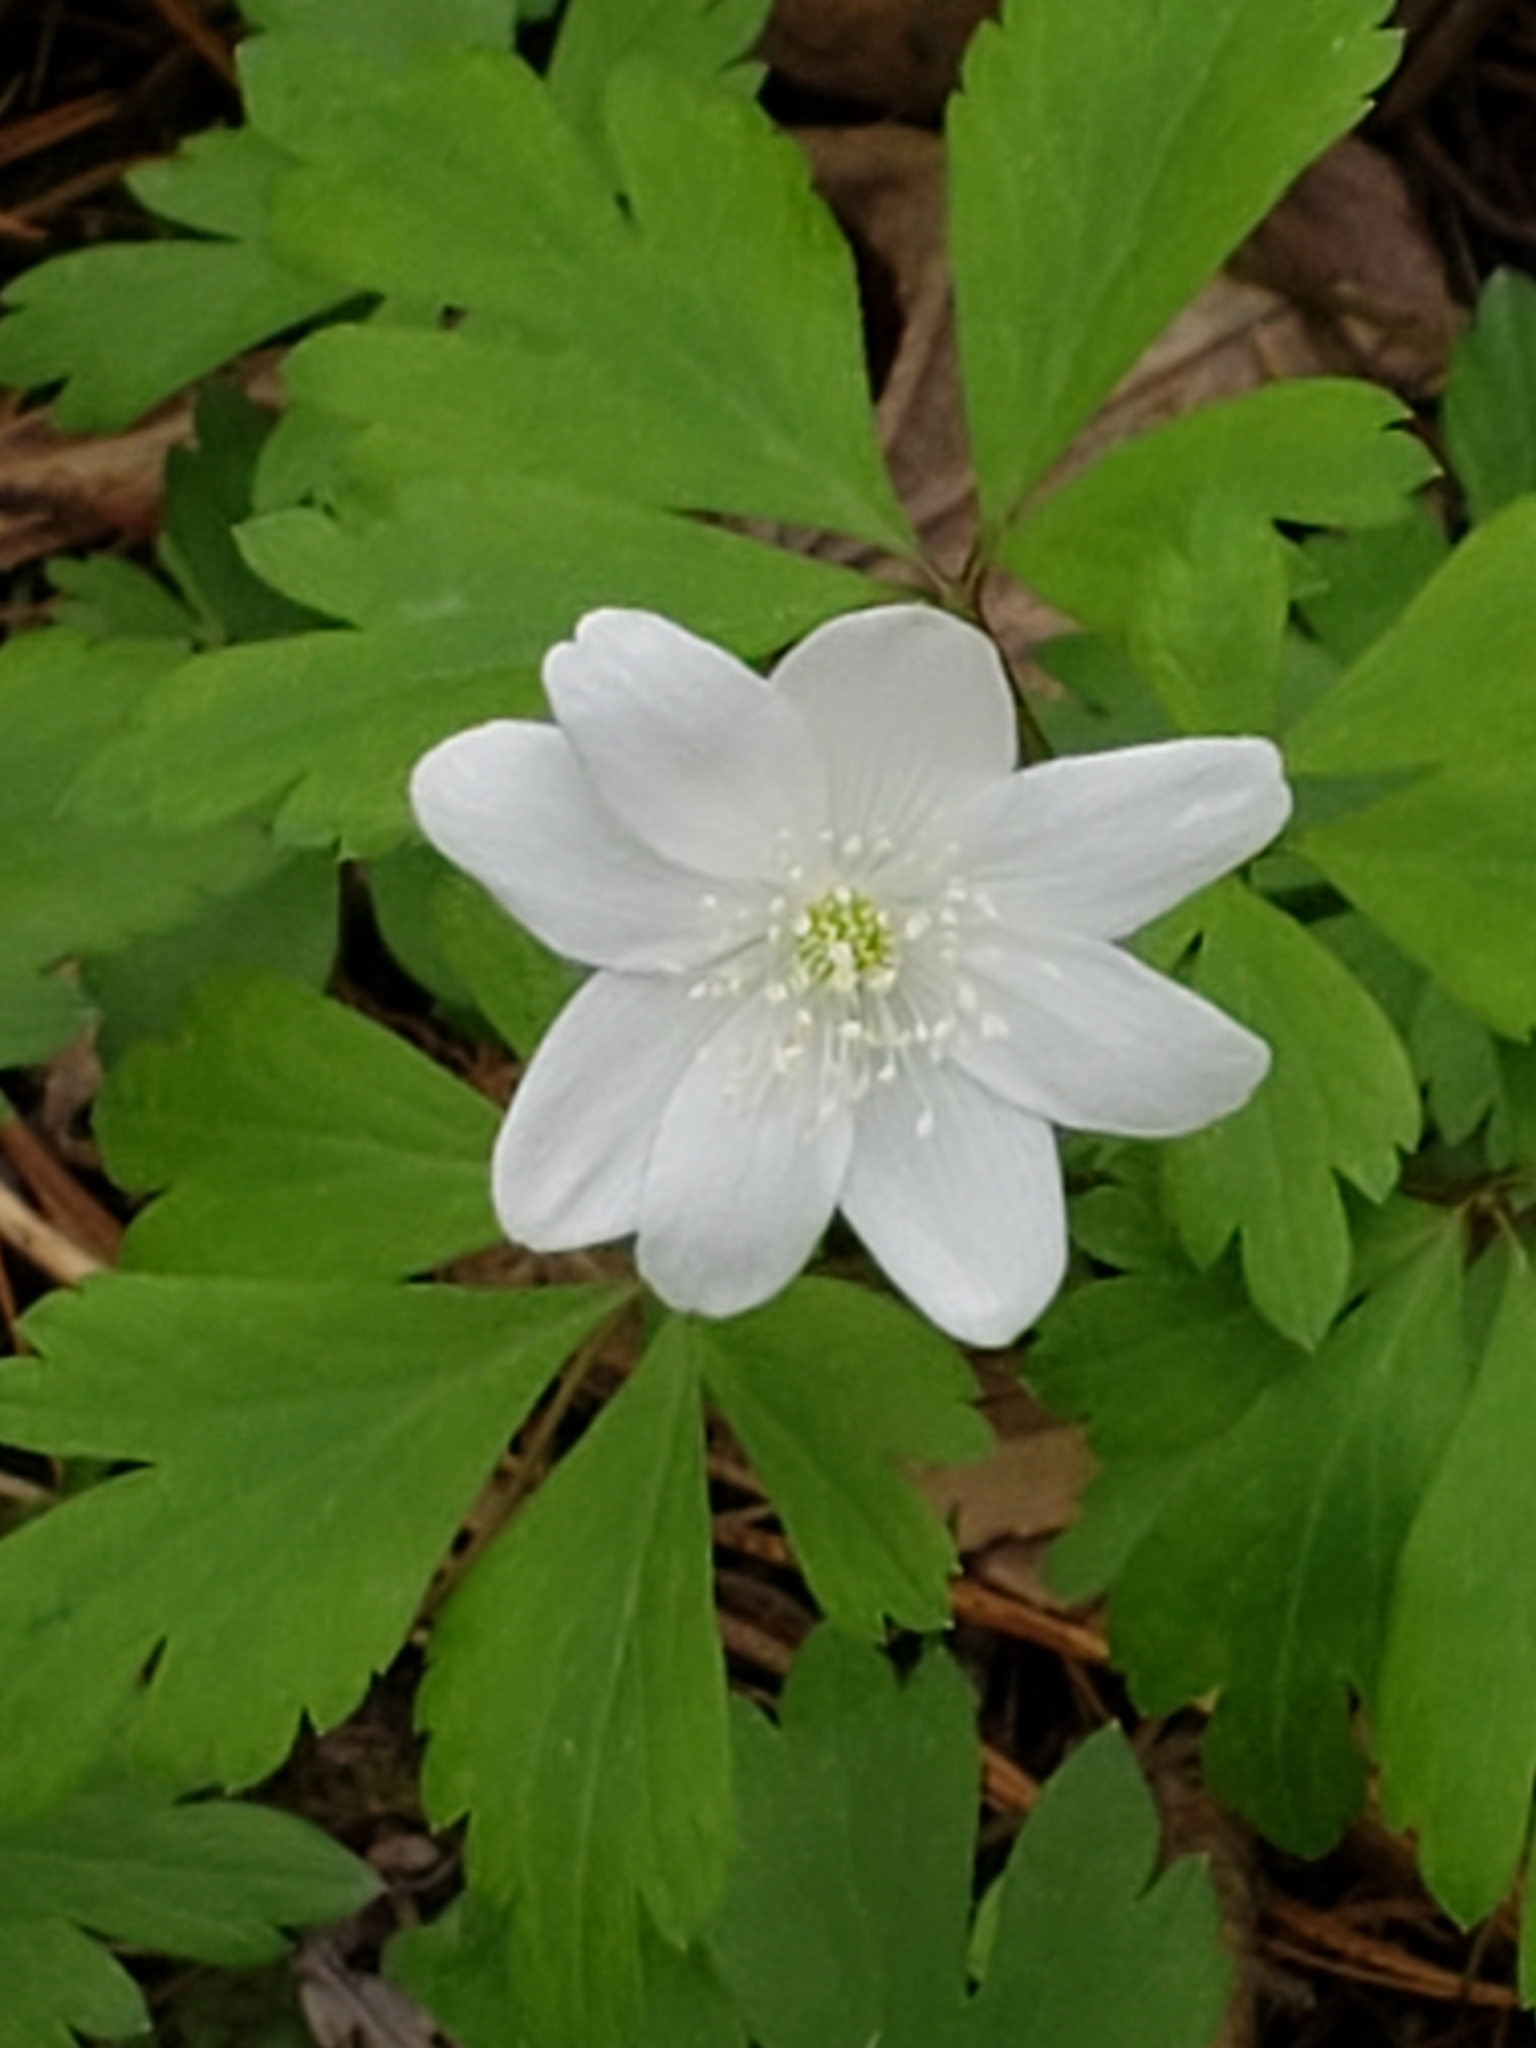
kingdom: Plantae
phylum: Tracheophyta
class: Magnoliopsida
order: Ranunculales
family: Ranunculaceae
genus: Anemone
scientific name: Anemone quinquefolia
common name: Wood anemone
